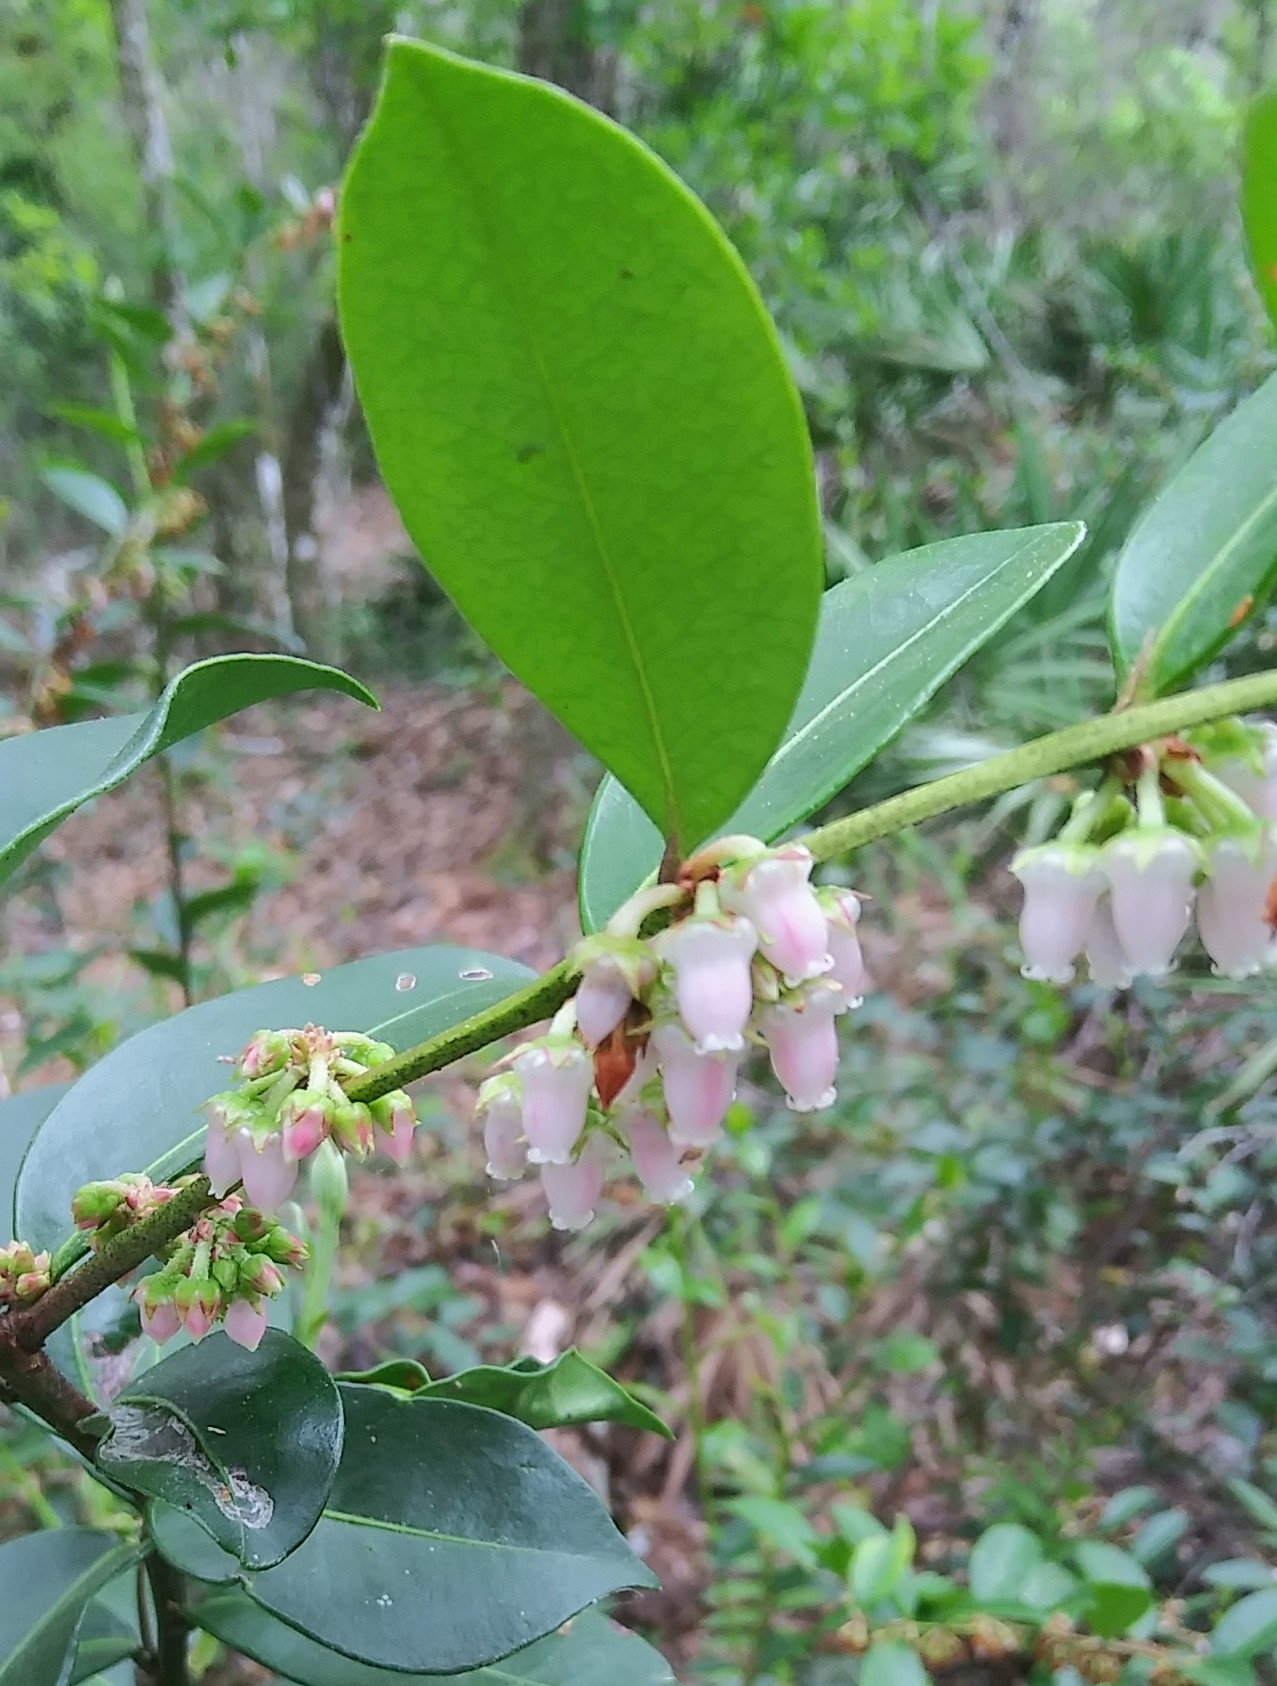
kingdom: Plantae
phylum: Tracheophyta
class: Magnoliopsida
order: Ericales
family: Ericaceae
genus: Lyonia
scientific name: Lyonia lucida
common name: Fetterbush
